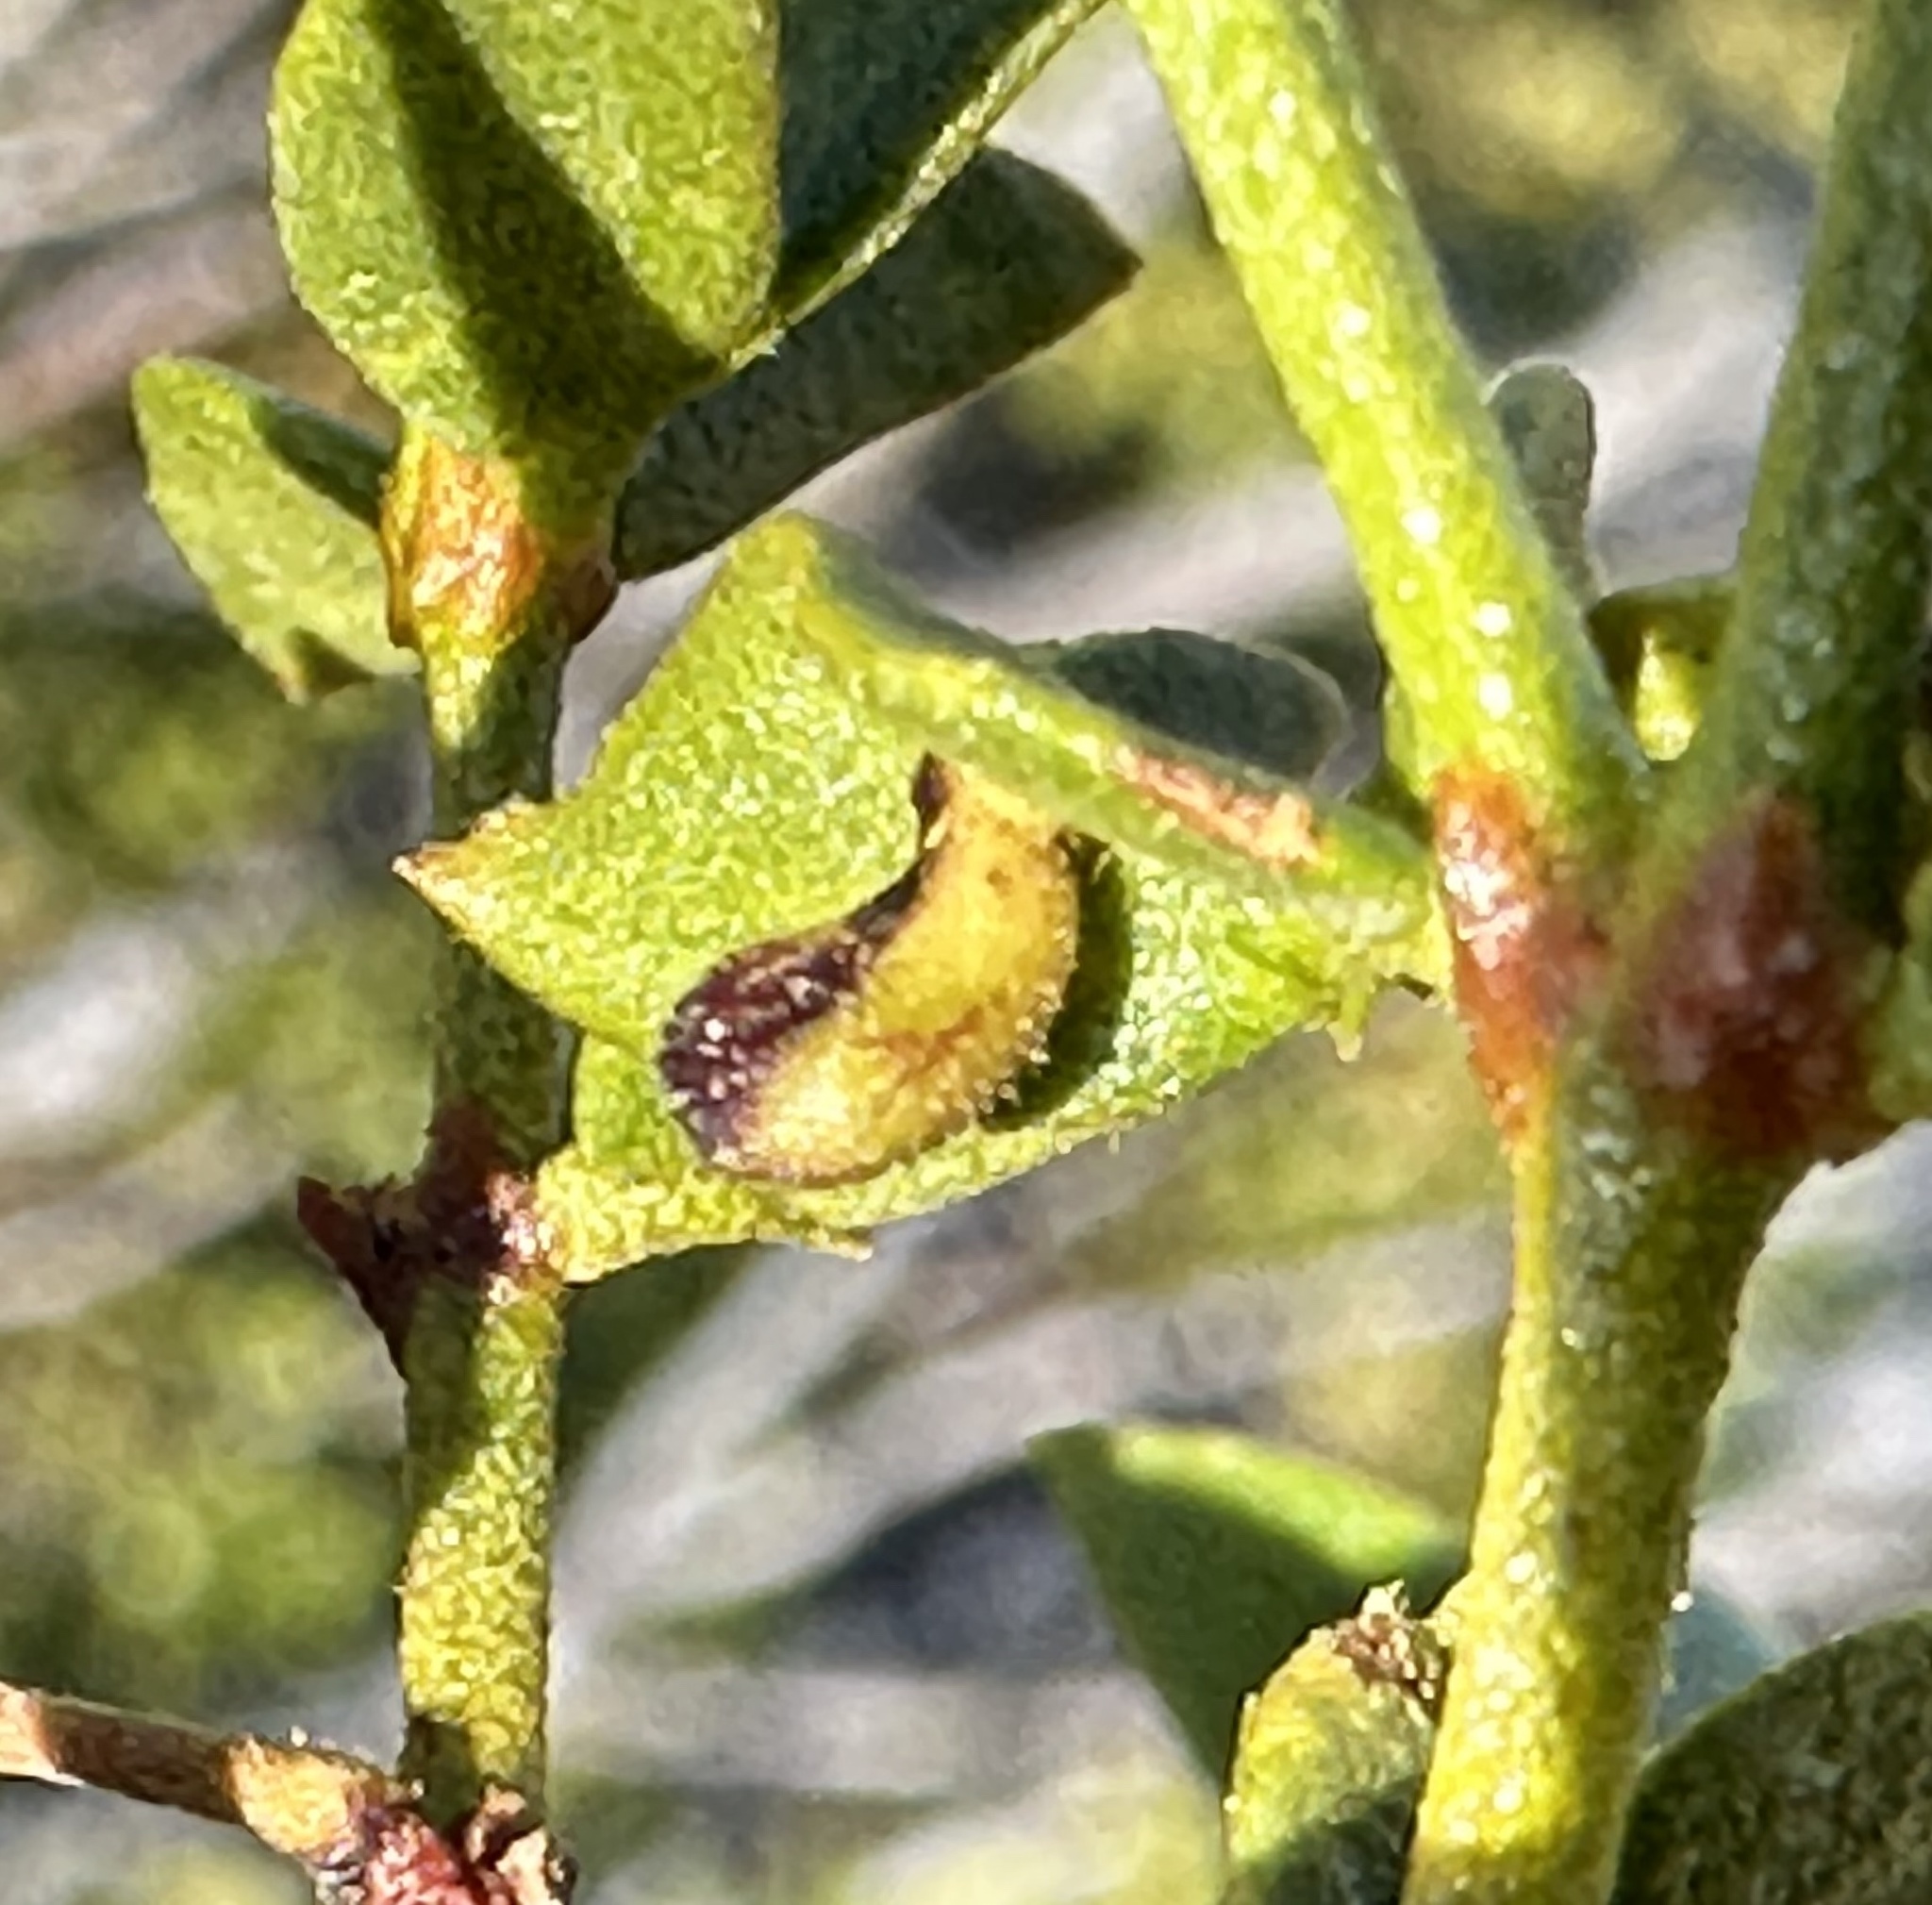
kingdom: Animalia
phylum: Arthropoda
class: Insecta
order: Diptera
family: Cecidomyiidae
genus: Asphondylia
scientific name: Asphondylia clavata
